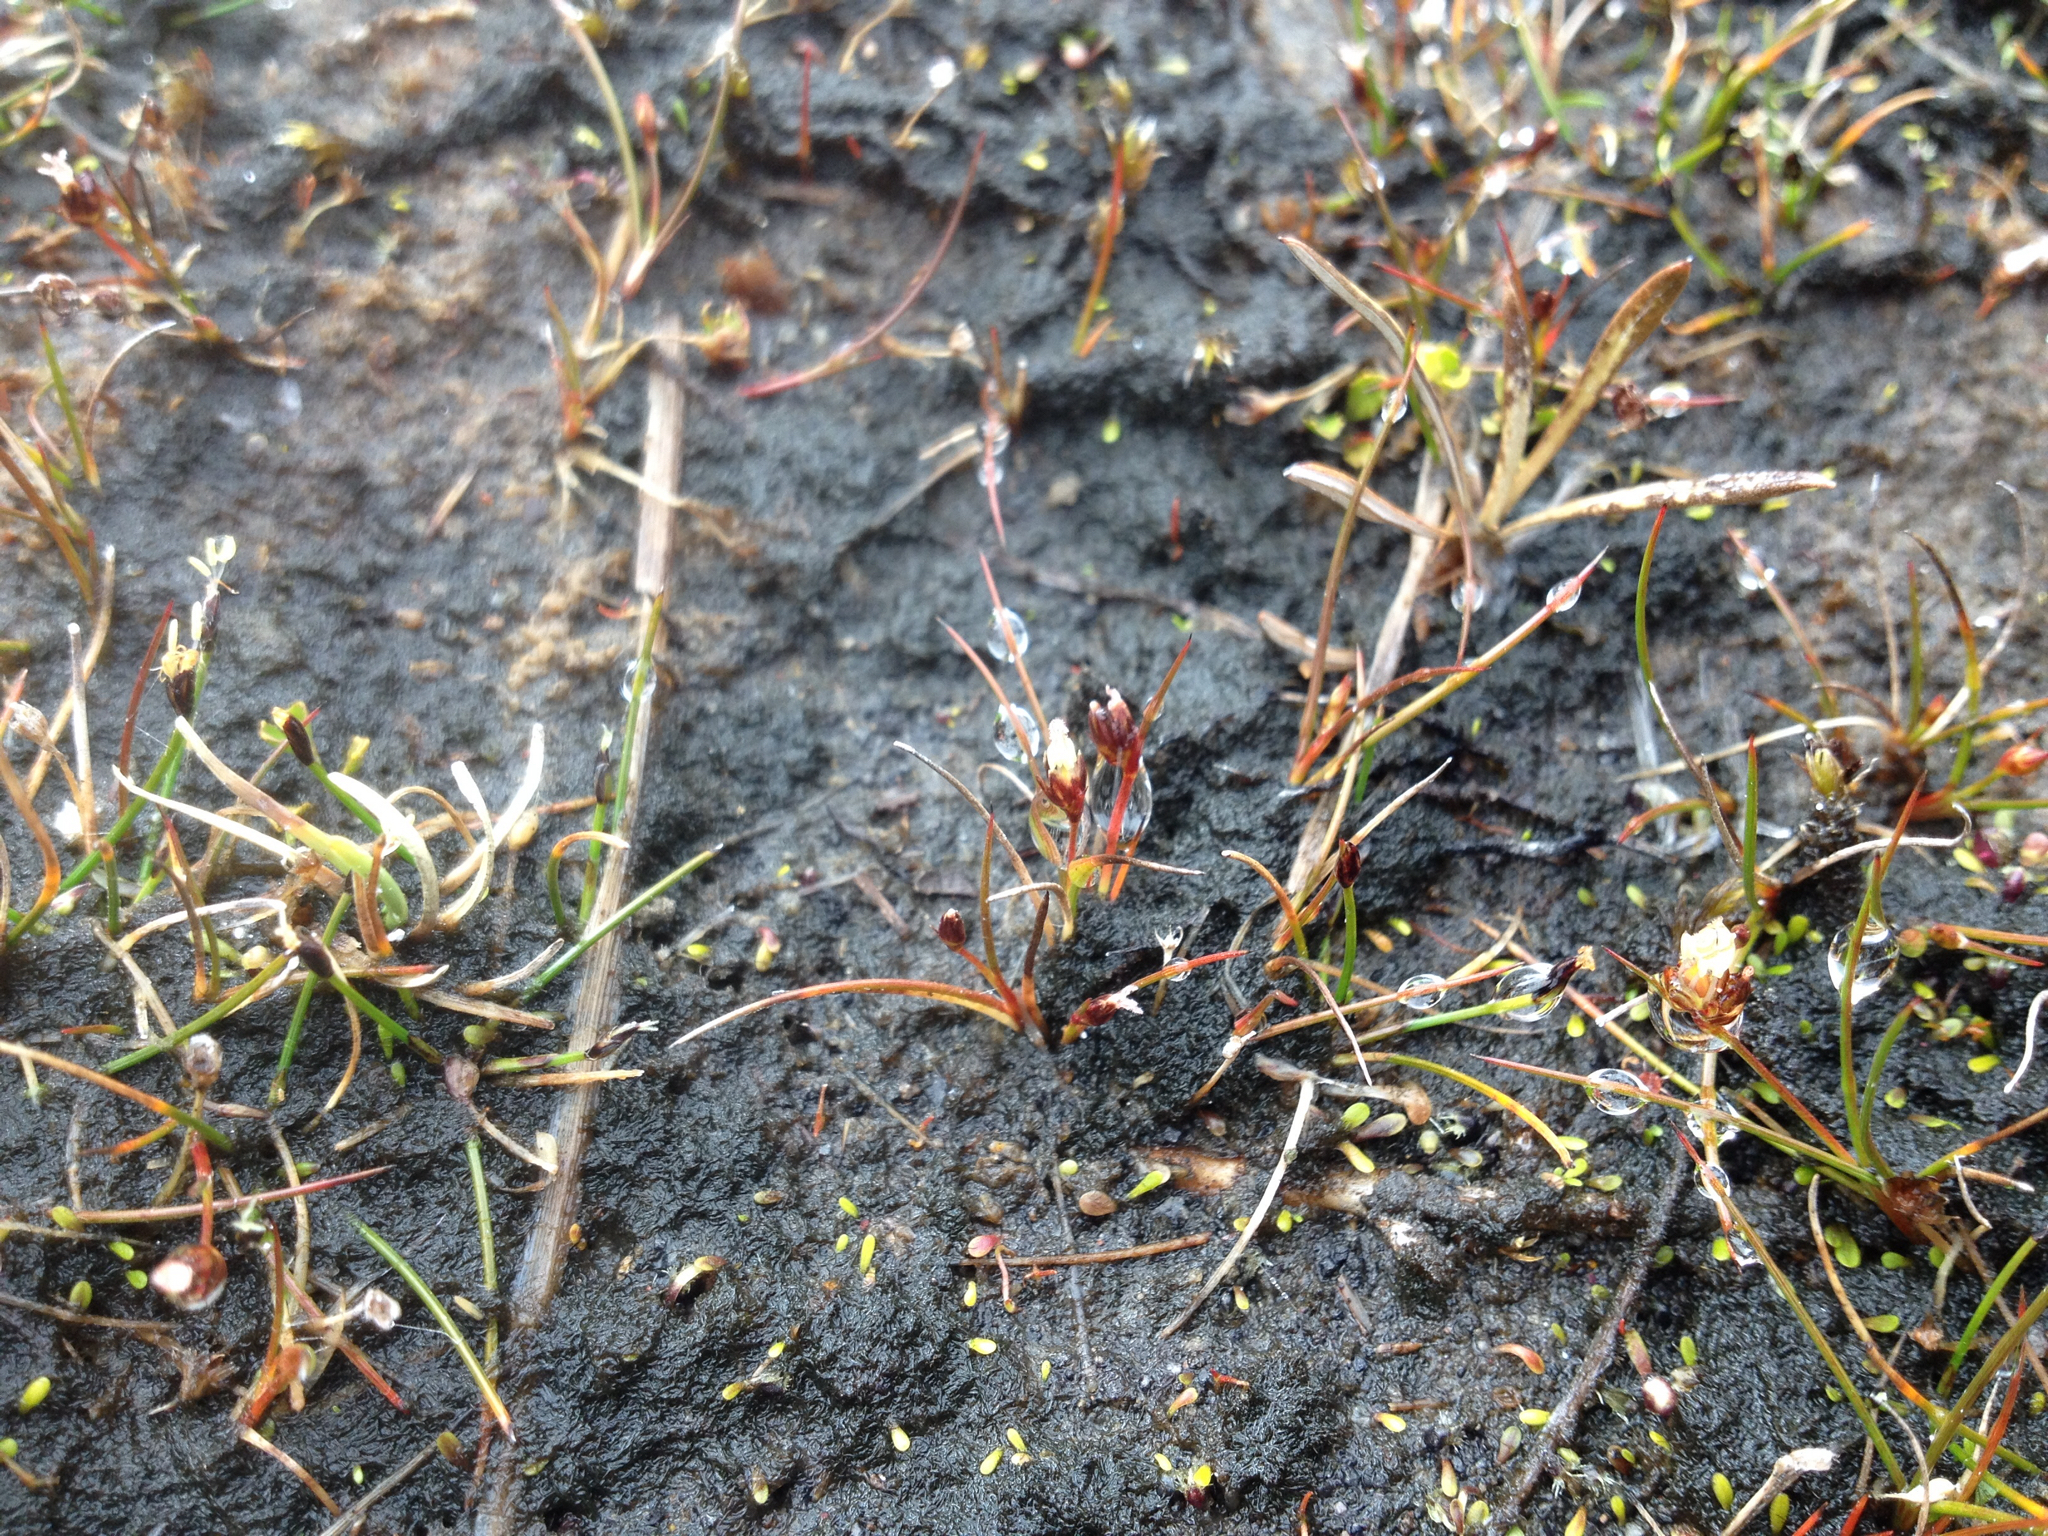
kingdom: Plantae
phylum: Tracheophyta
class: Liliopsida
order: Poales
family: Juncaceae
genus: Juncus
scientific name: Juncus antarcticus
